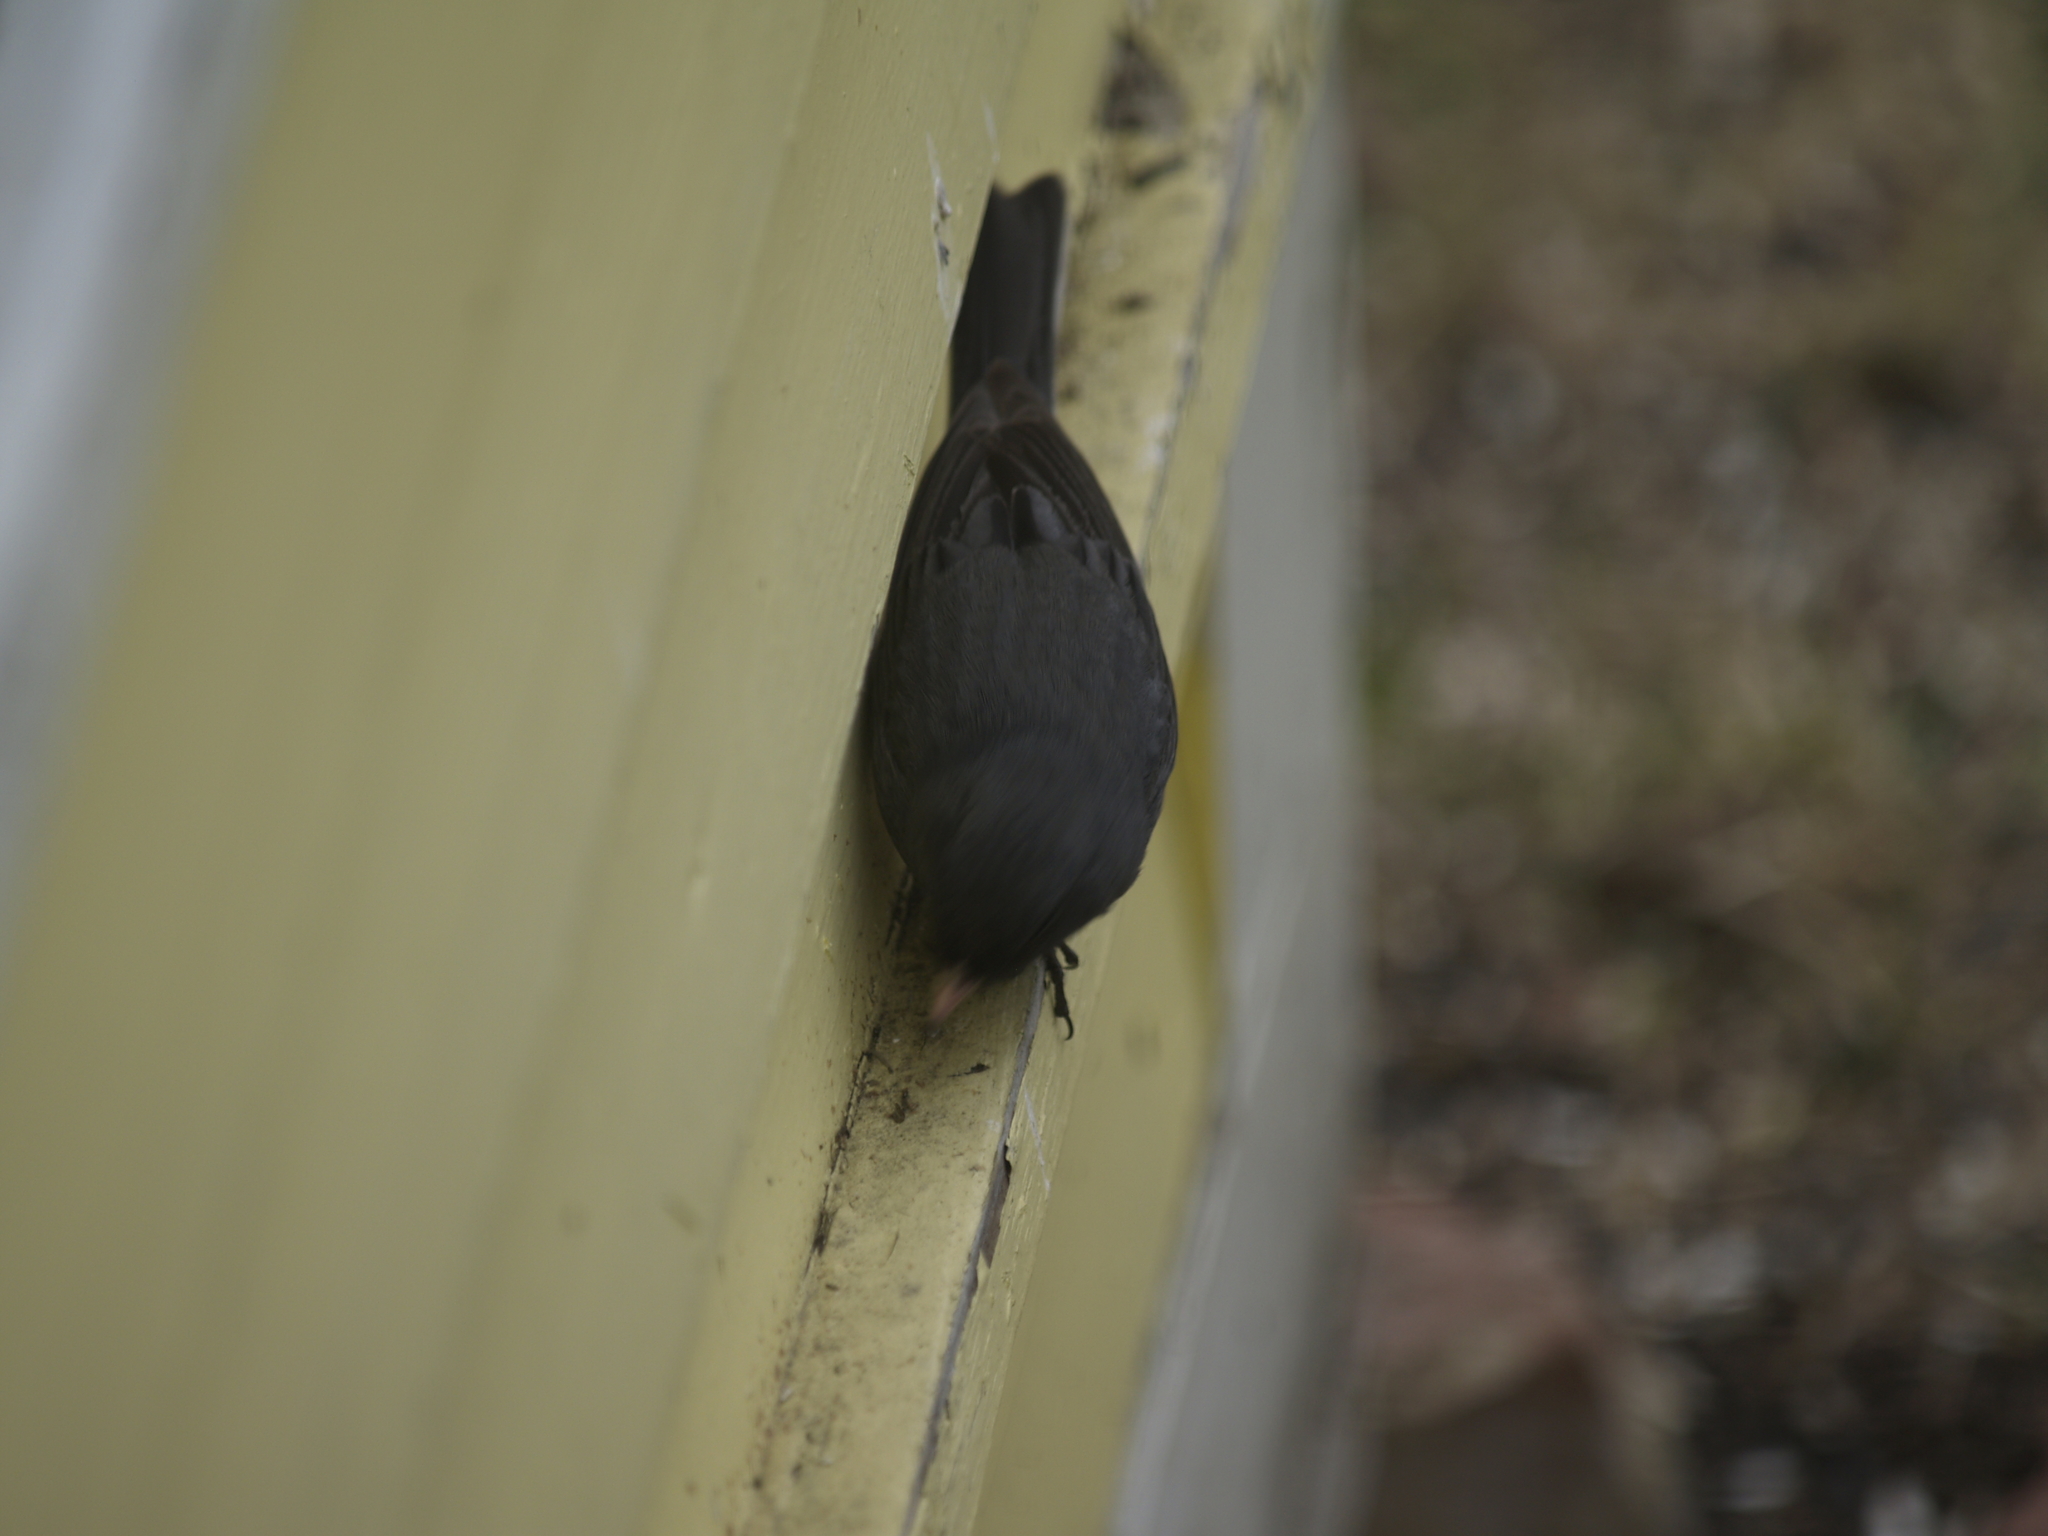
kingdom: Animalia
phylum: Chordata
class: Aves
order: Passeriformes
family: Passerellidae
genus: Junco
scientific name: Junco hyemalis
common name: Dark-eyed junco
